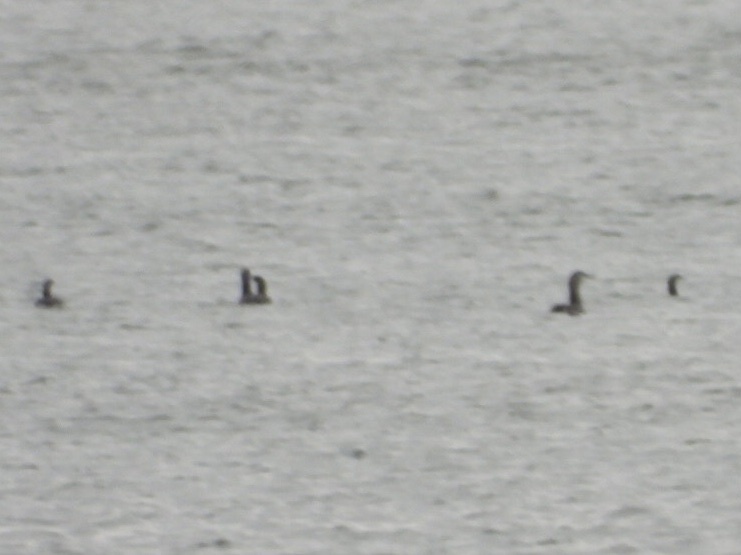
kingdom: Animalia
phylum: Chordata
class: Aves
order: Gaviiformes
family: Gaviidae
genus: Gavia
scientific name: Gavia stellata
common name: Red-throated loon
